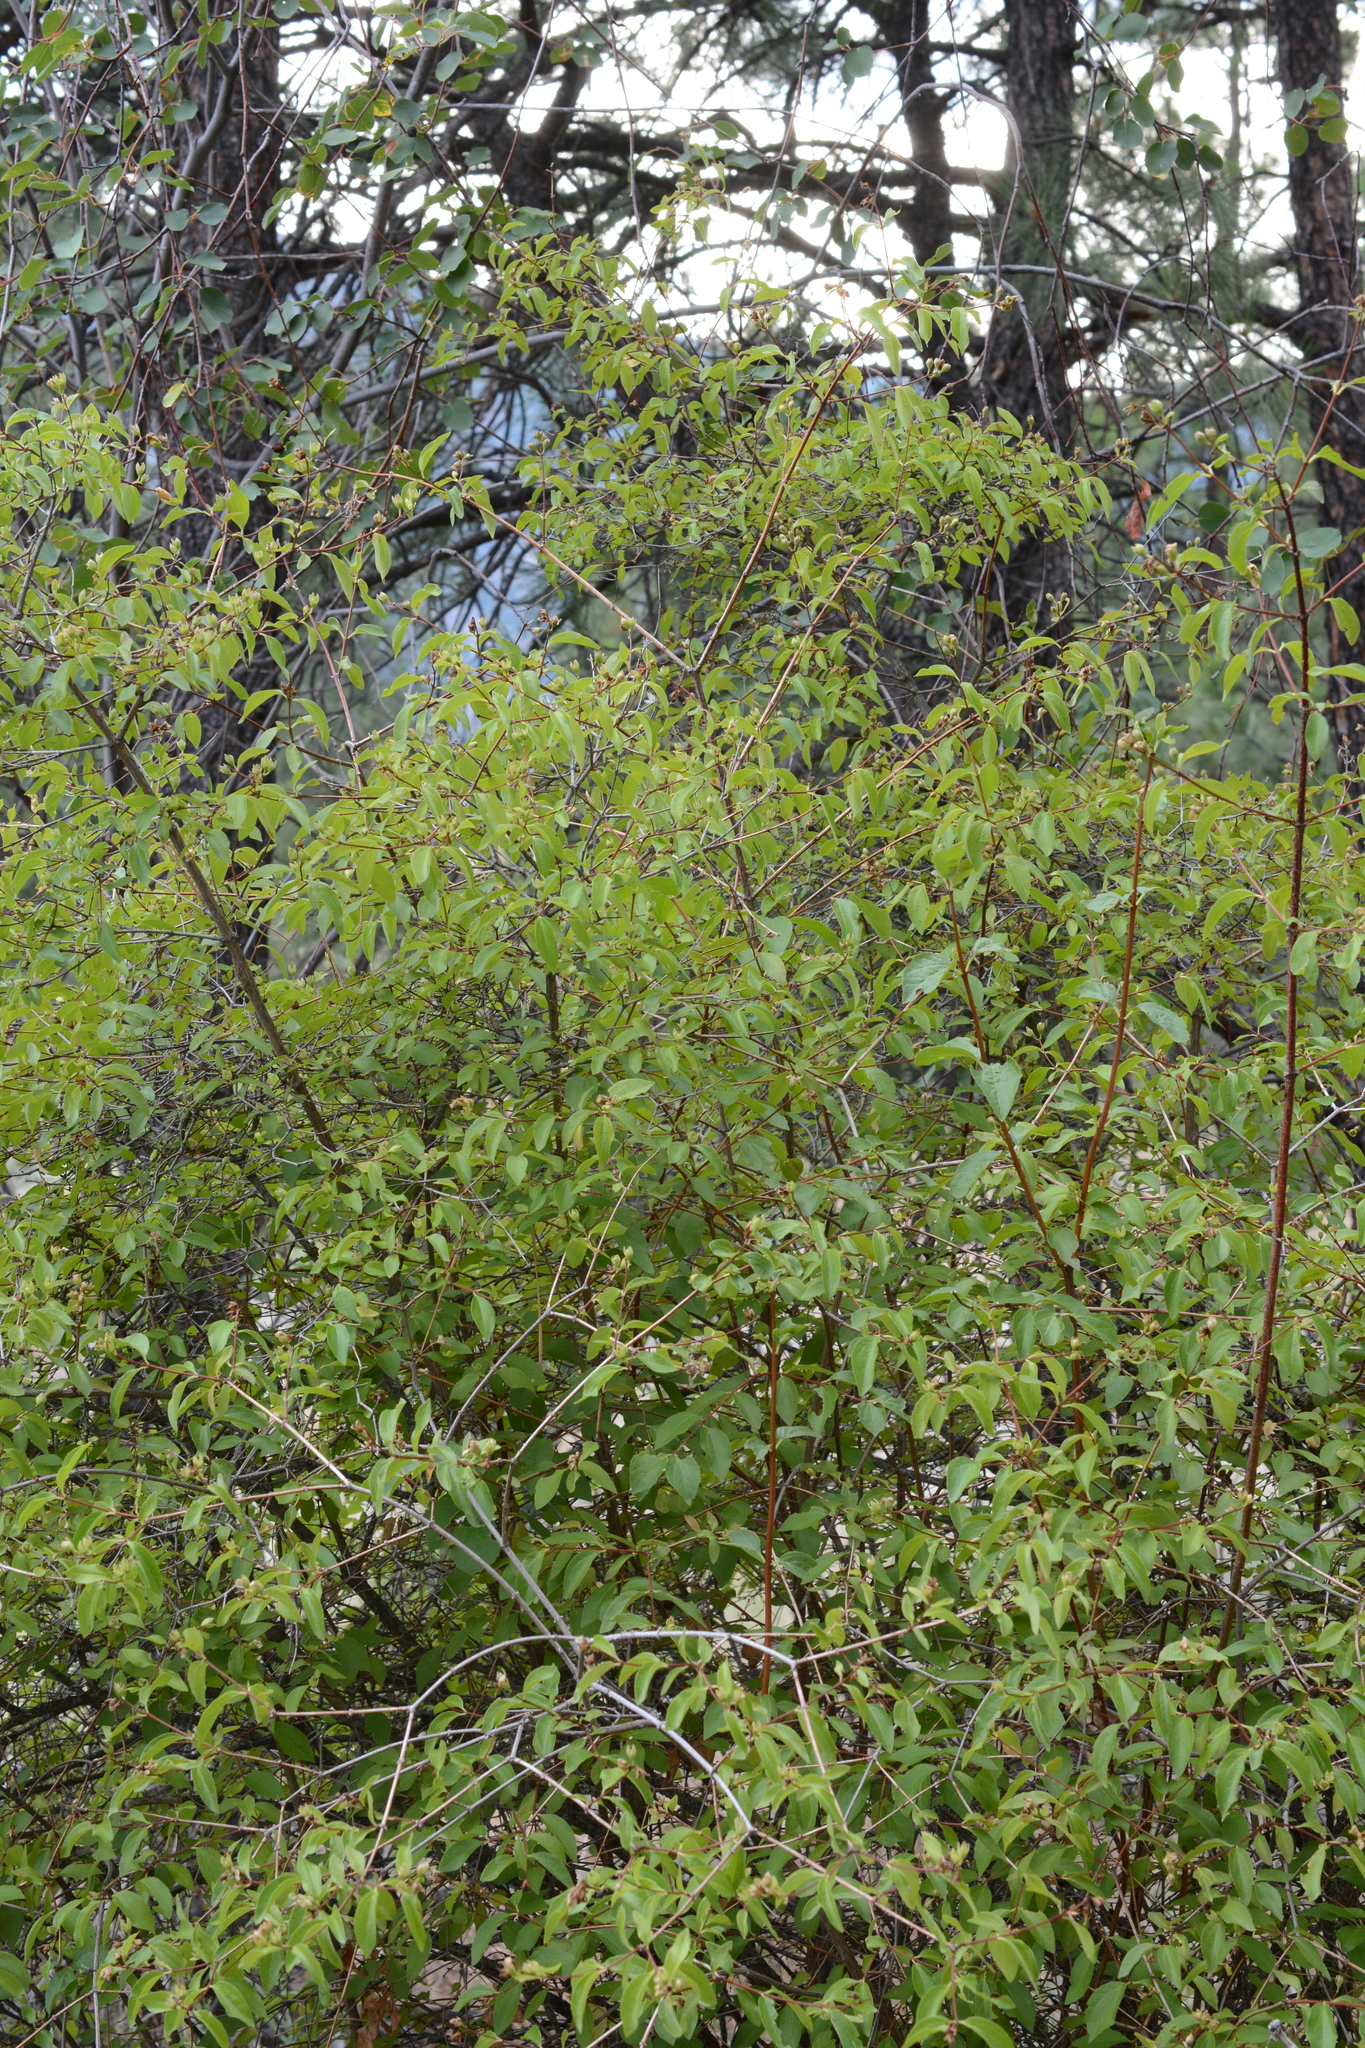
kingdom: Plantae
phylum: Tracheophyta
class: Magnoliopsida
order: Cornales
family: Hydrangeaceae
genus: Philadelphus
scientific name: Philadelphus lewisii
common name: Lewis's mock orange
